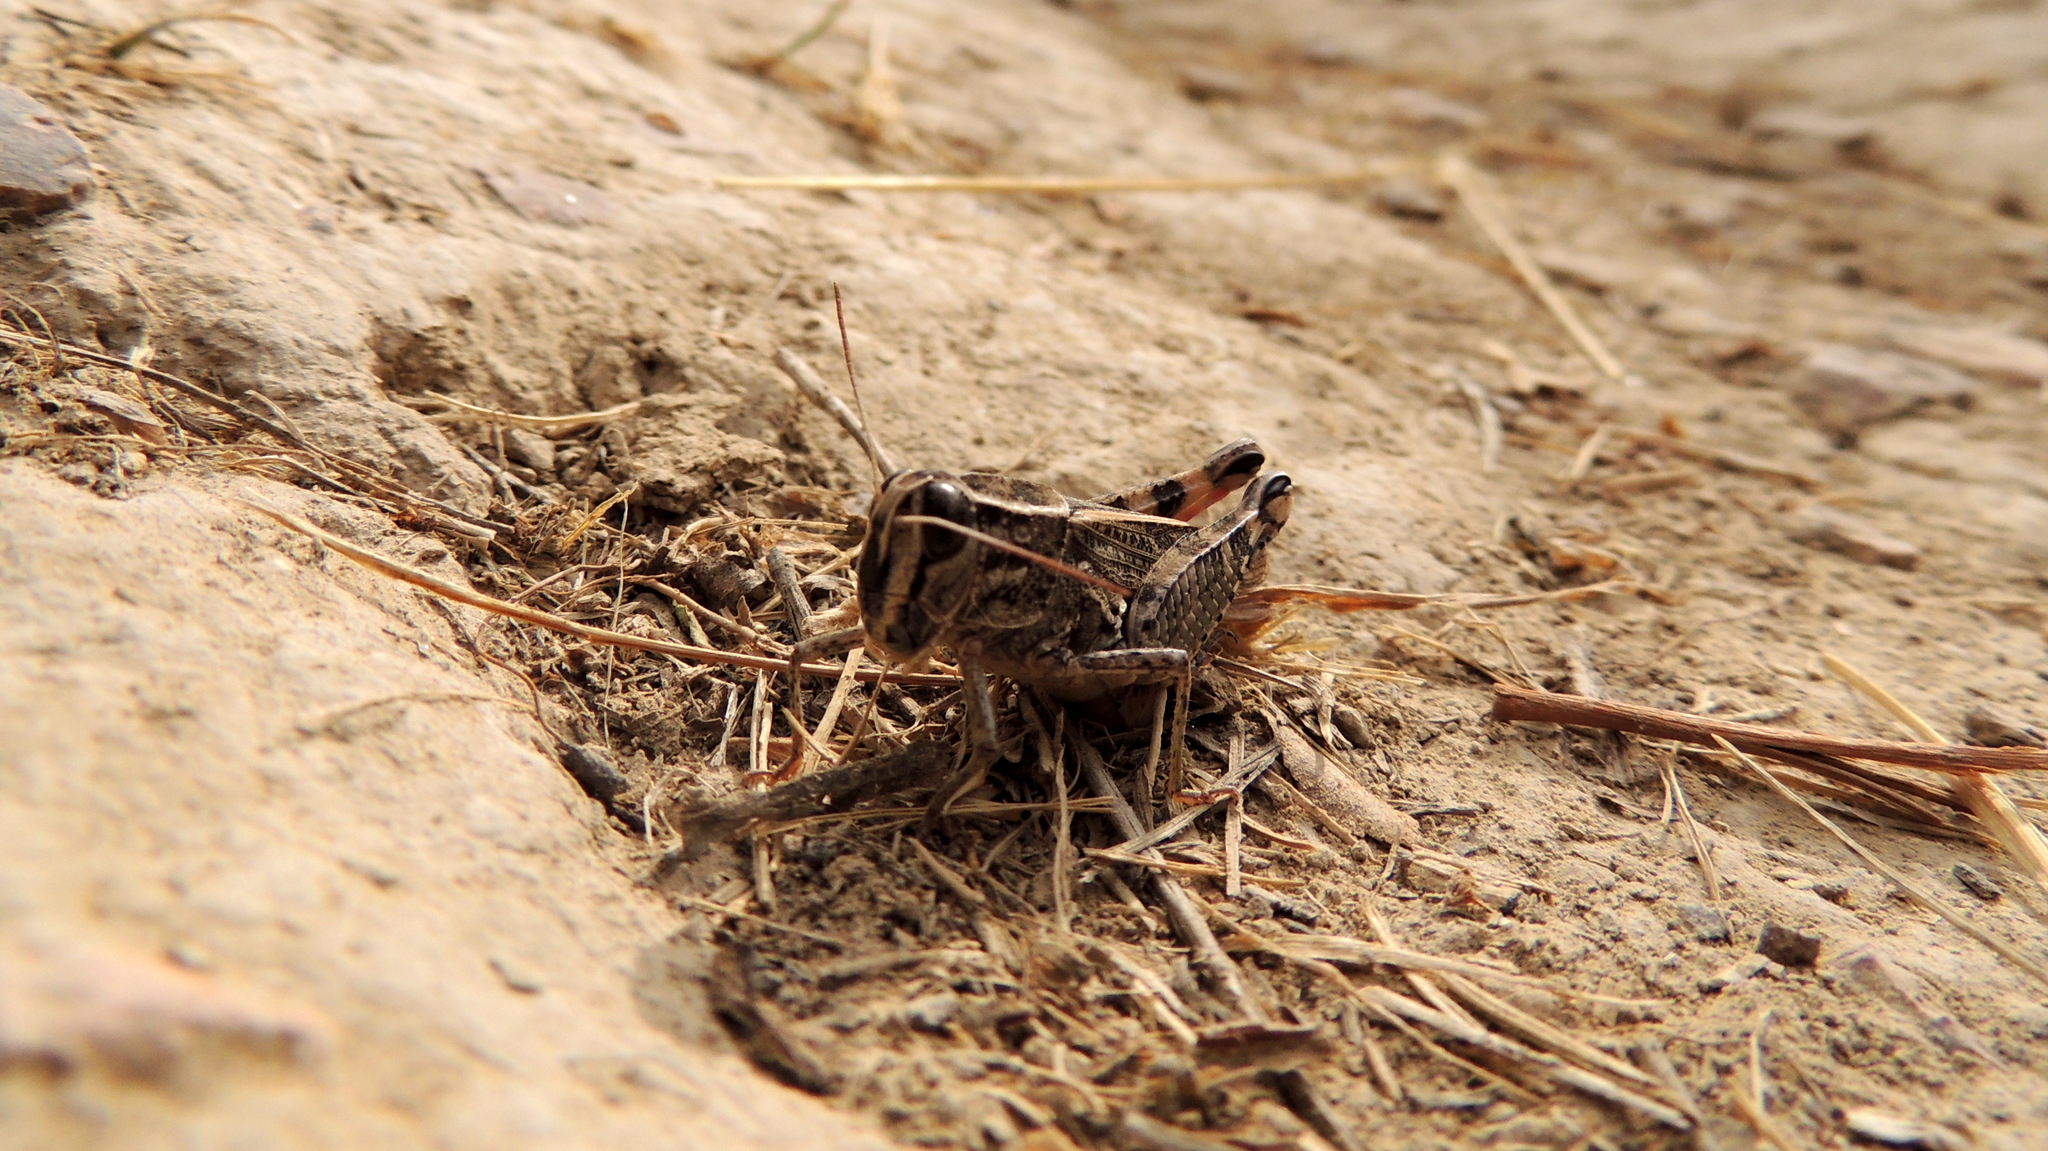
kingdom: Animalia
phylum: Arthropoda
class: Insecta
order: Orthoptera
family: Acrididae
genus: Calliptamus
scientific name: Calliptamus italicus
